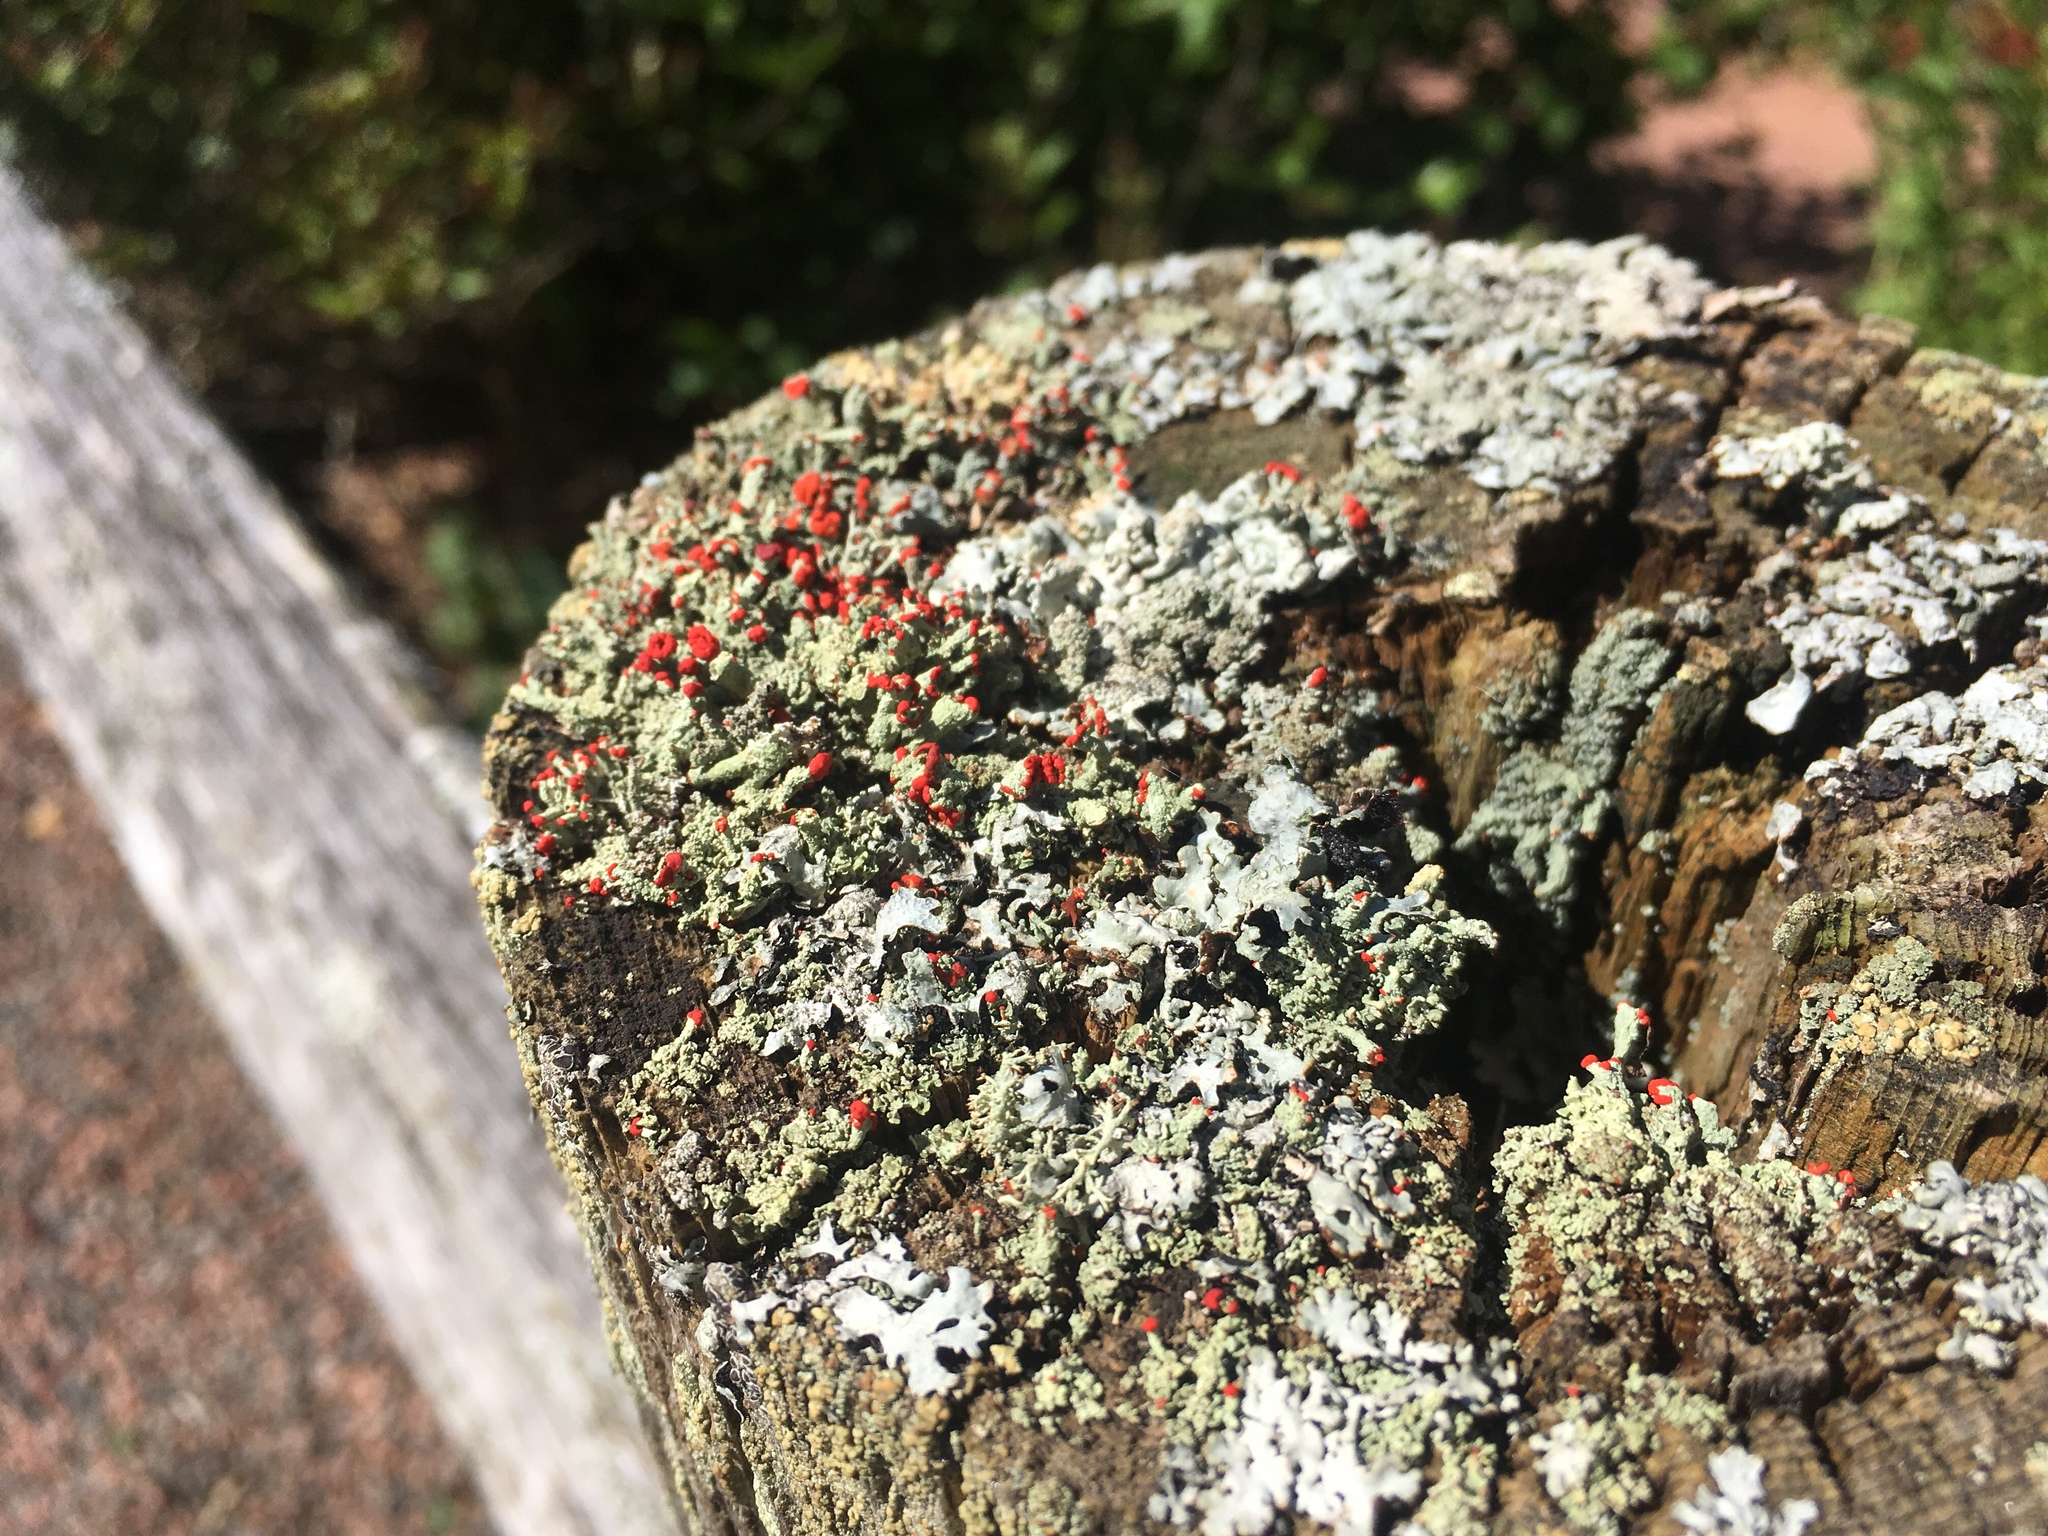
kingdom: Fungi
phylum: Ascomycota
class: Lecanoromycetes
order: Lecanorales
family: Cladoniaceae
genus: Cladonia
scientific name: Cladonia cristatella
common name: British soldier lichen
